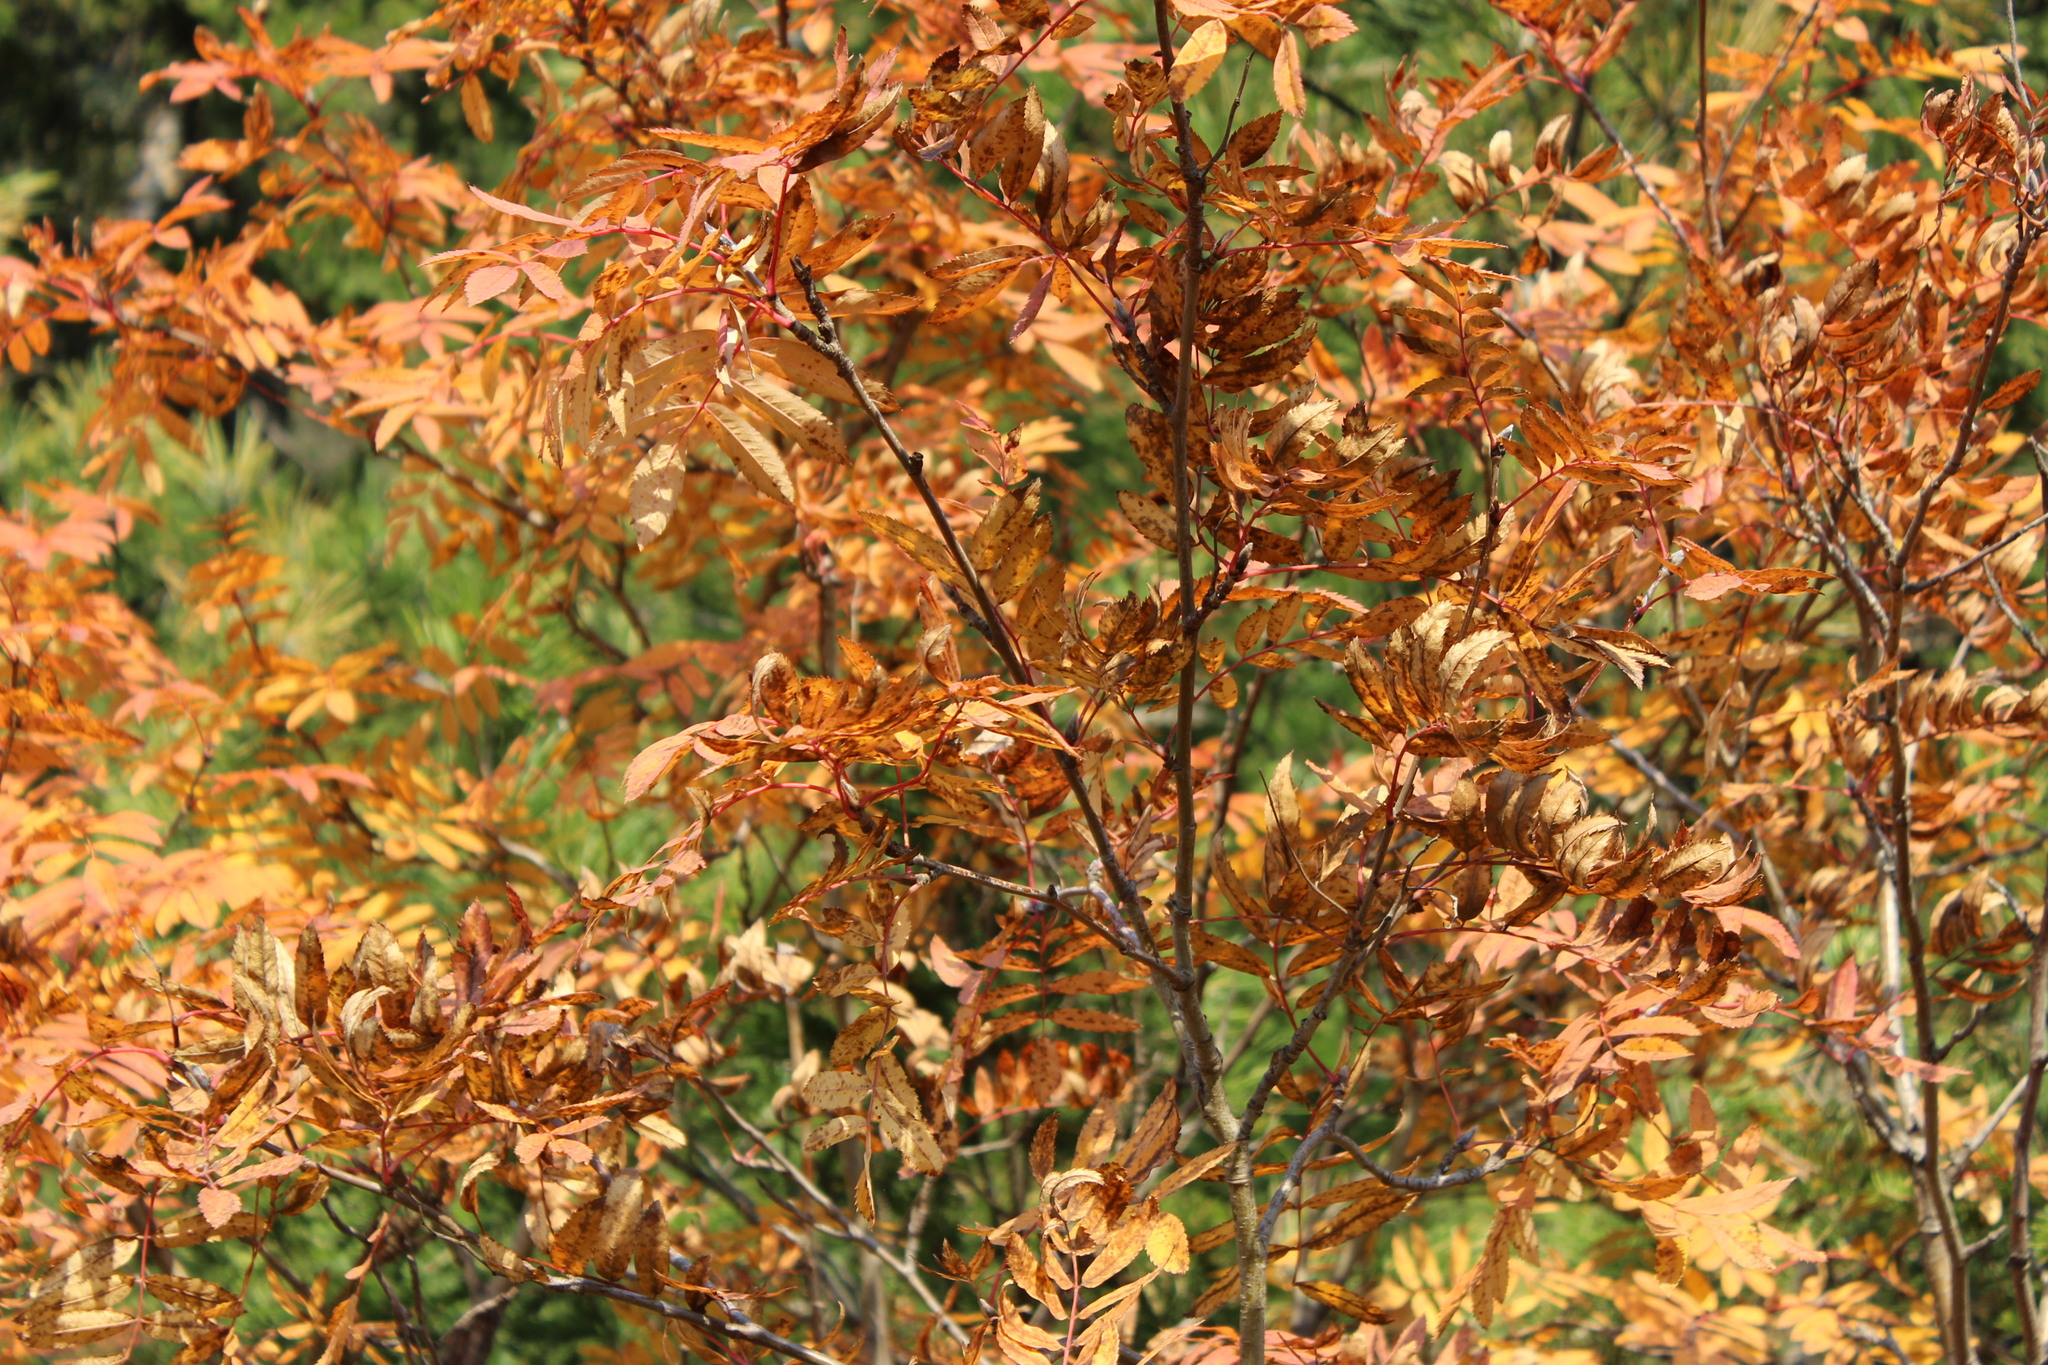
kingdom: Plantae
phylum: Tracheophyta
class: Magnoliopsida
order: Rosales
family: Rosaceae
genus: Sorbus
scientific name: Sorbus aucuparia
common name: Rowan
